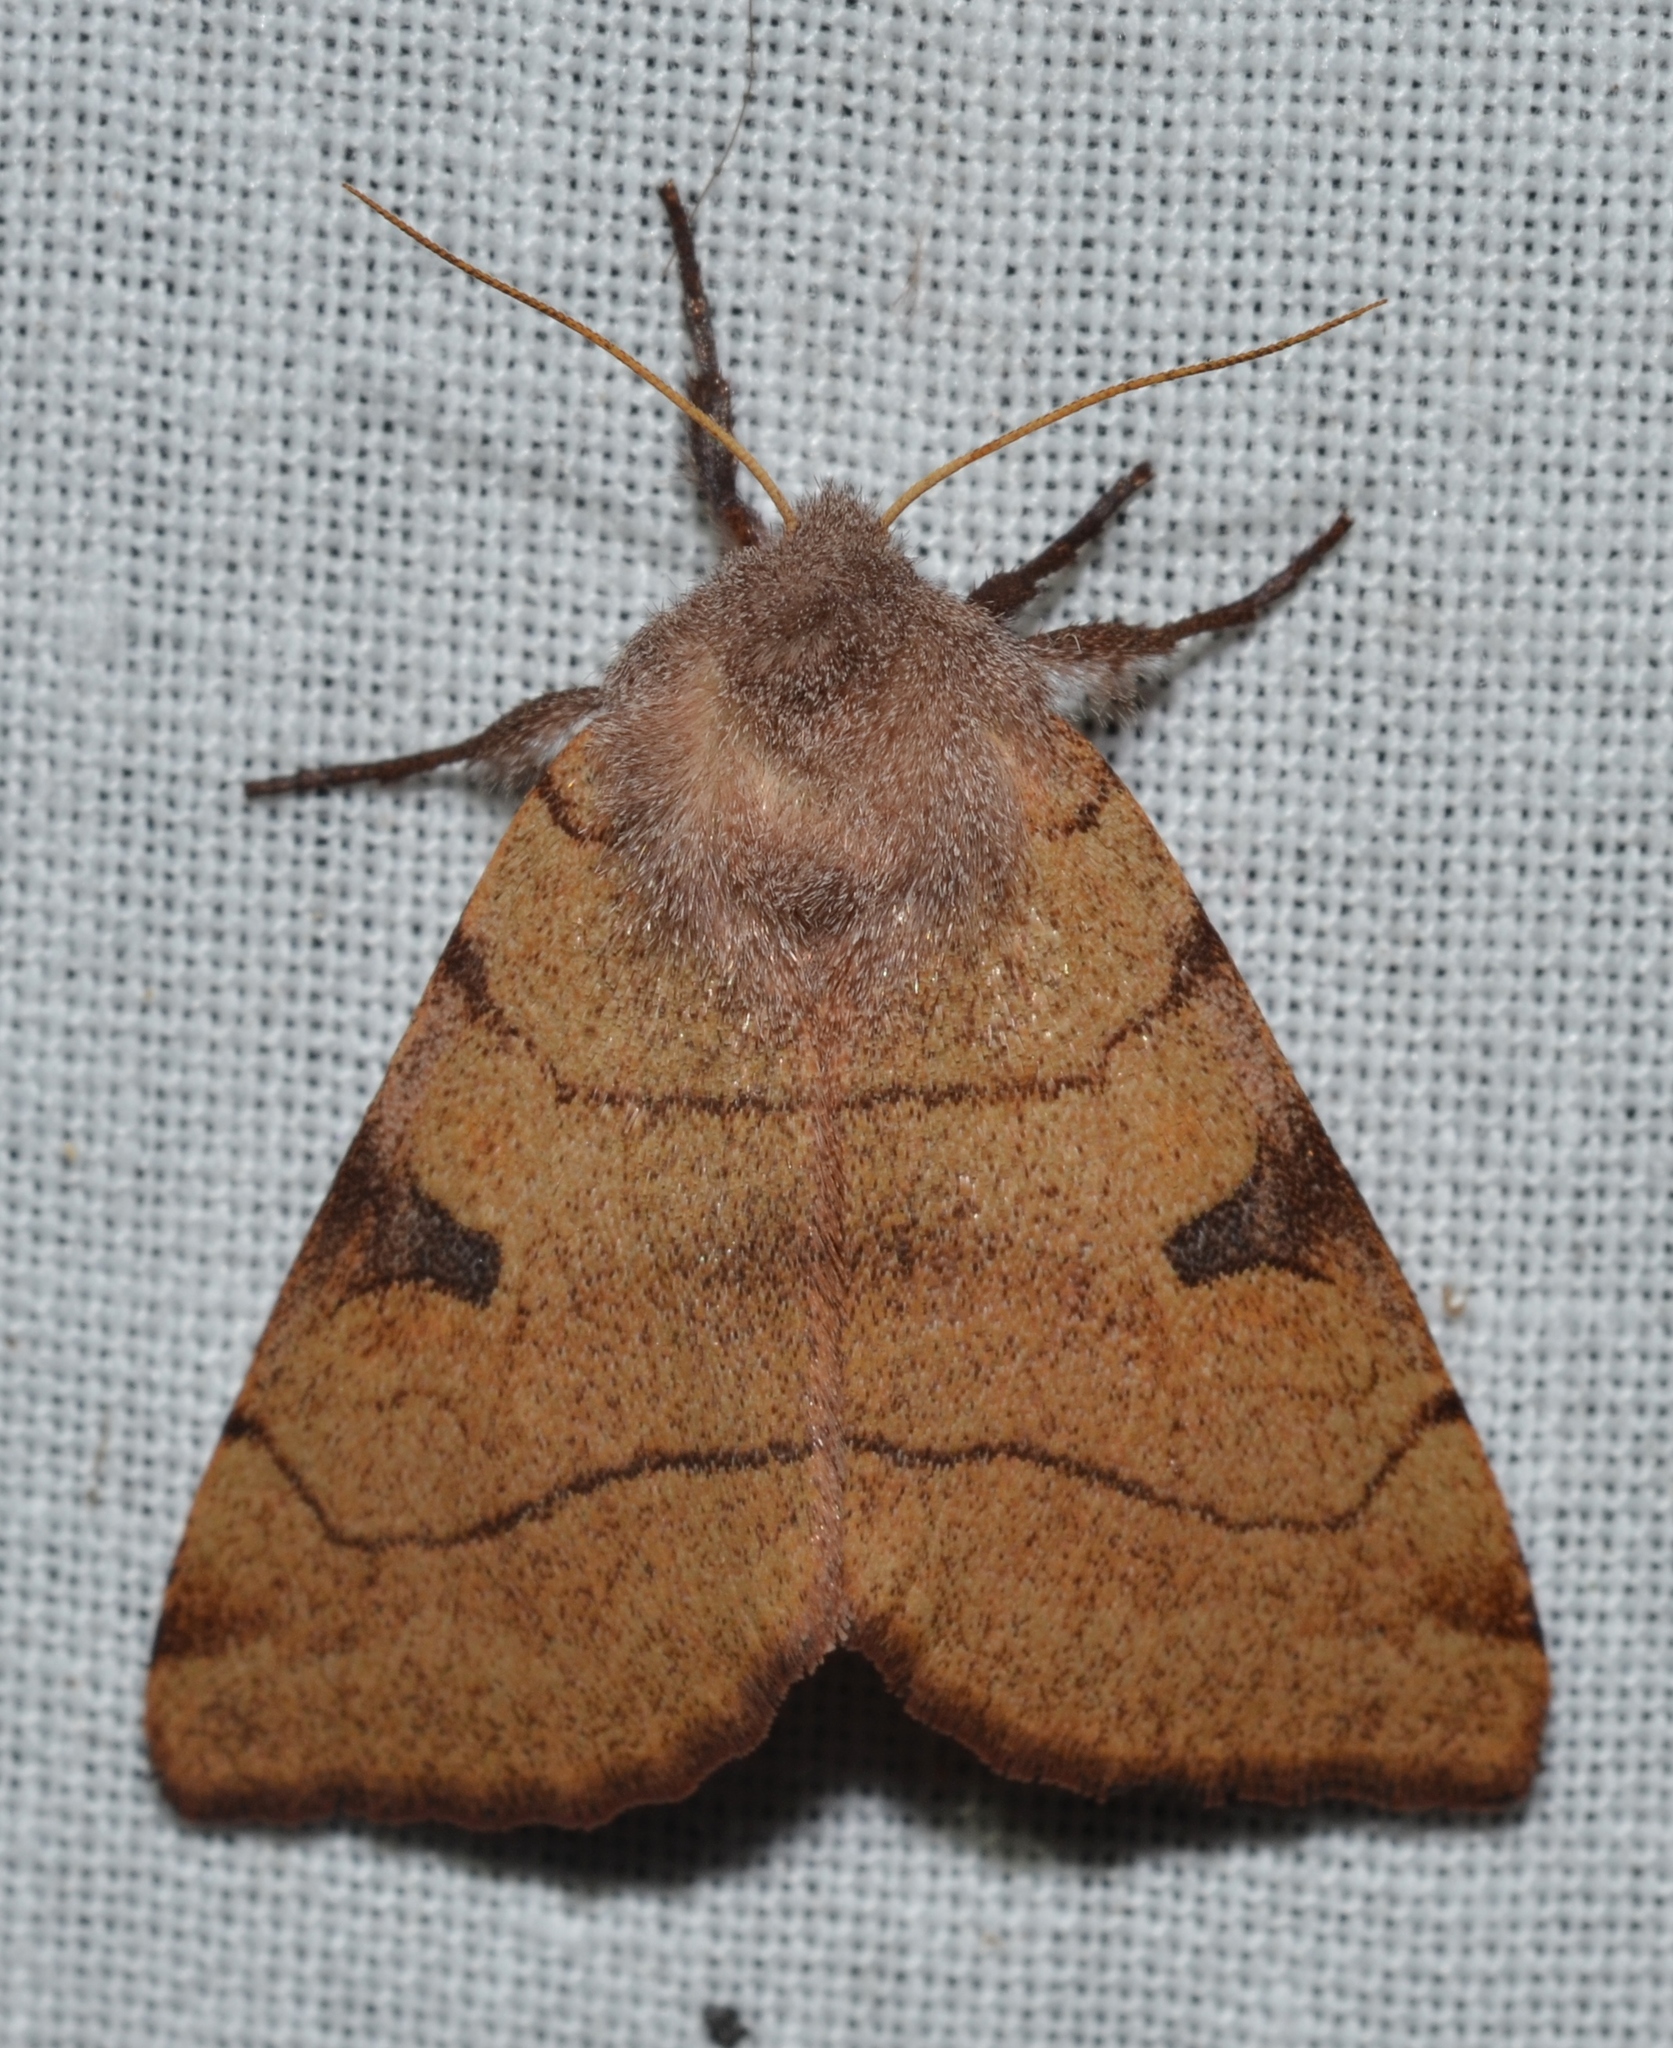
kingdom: Animalia
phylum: Arthropoda
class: Insecta
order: Lepidoptera
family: Noctuidae
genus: Choephora
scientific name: Choephora fungorum
